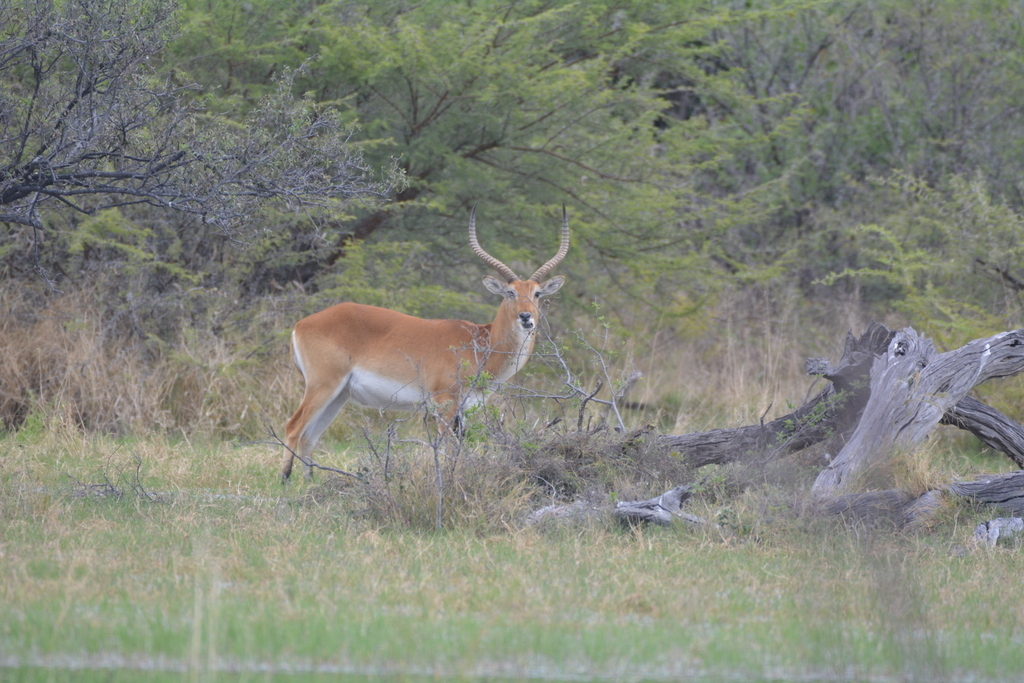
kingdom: Animalia
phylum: Chordata
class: Mammalia
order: Artiodactyla
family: Bovidae
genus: Kobus
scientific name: Kobus leche
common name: Lechwe
